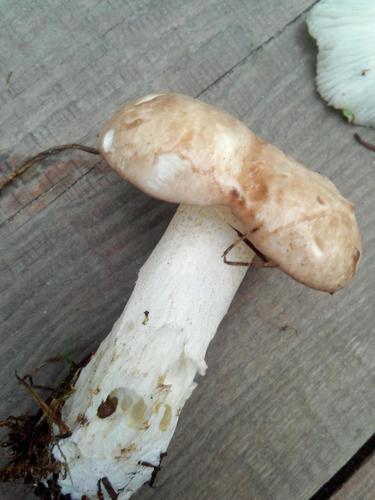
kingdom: Fungi
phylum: Basidiomycota
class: Agaricomycetes
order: Boletales
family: Suillaceae
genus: Suillus
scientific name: Suillus placidus
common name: Slippery white bolete
